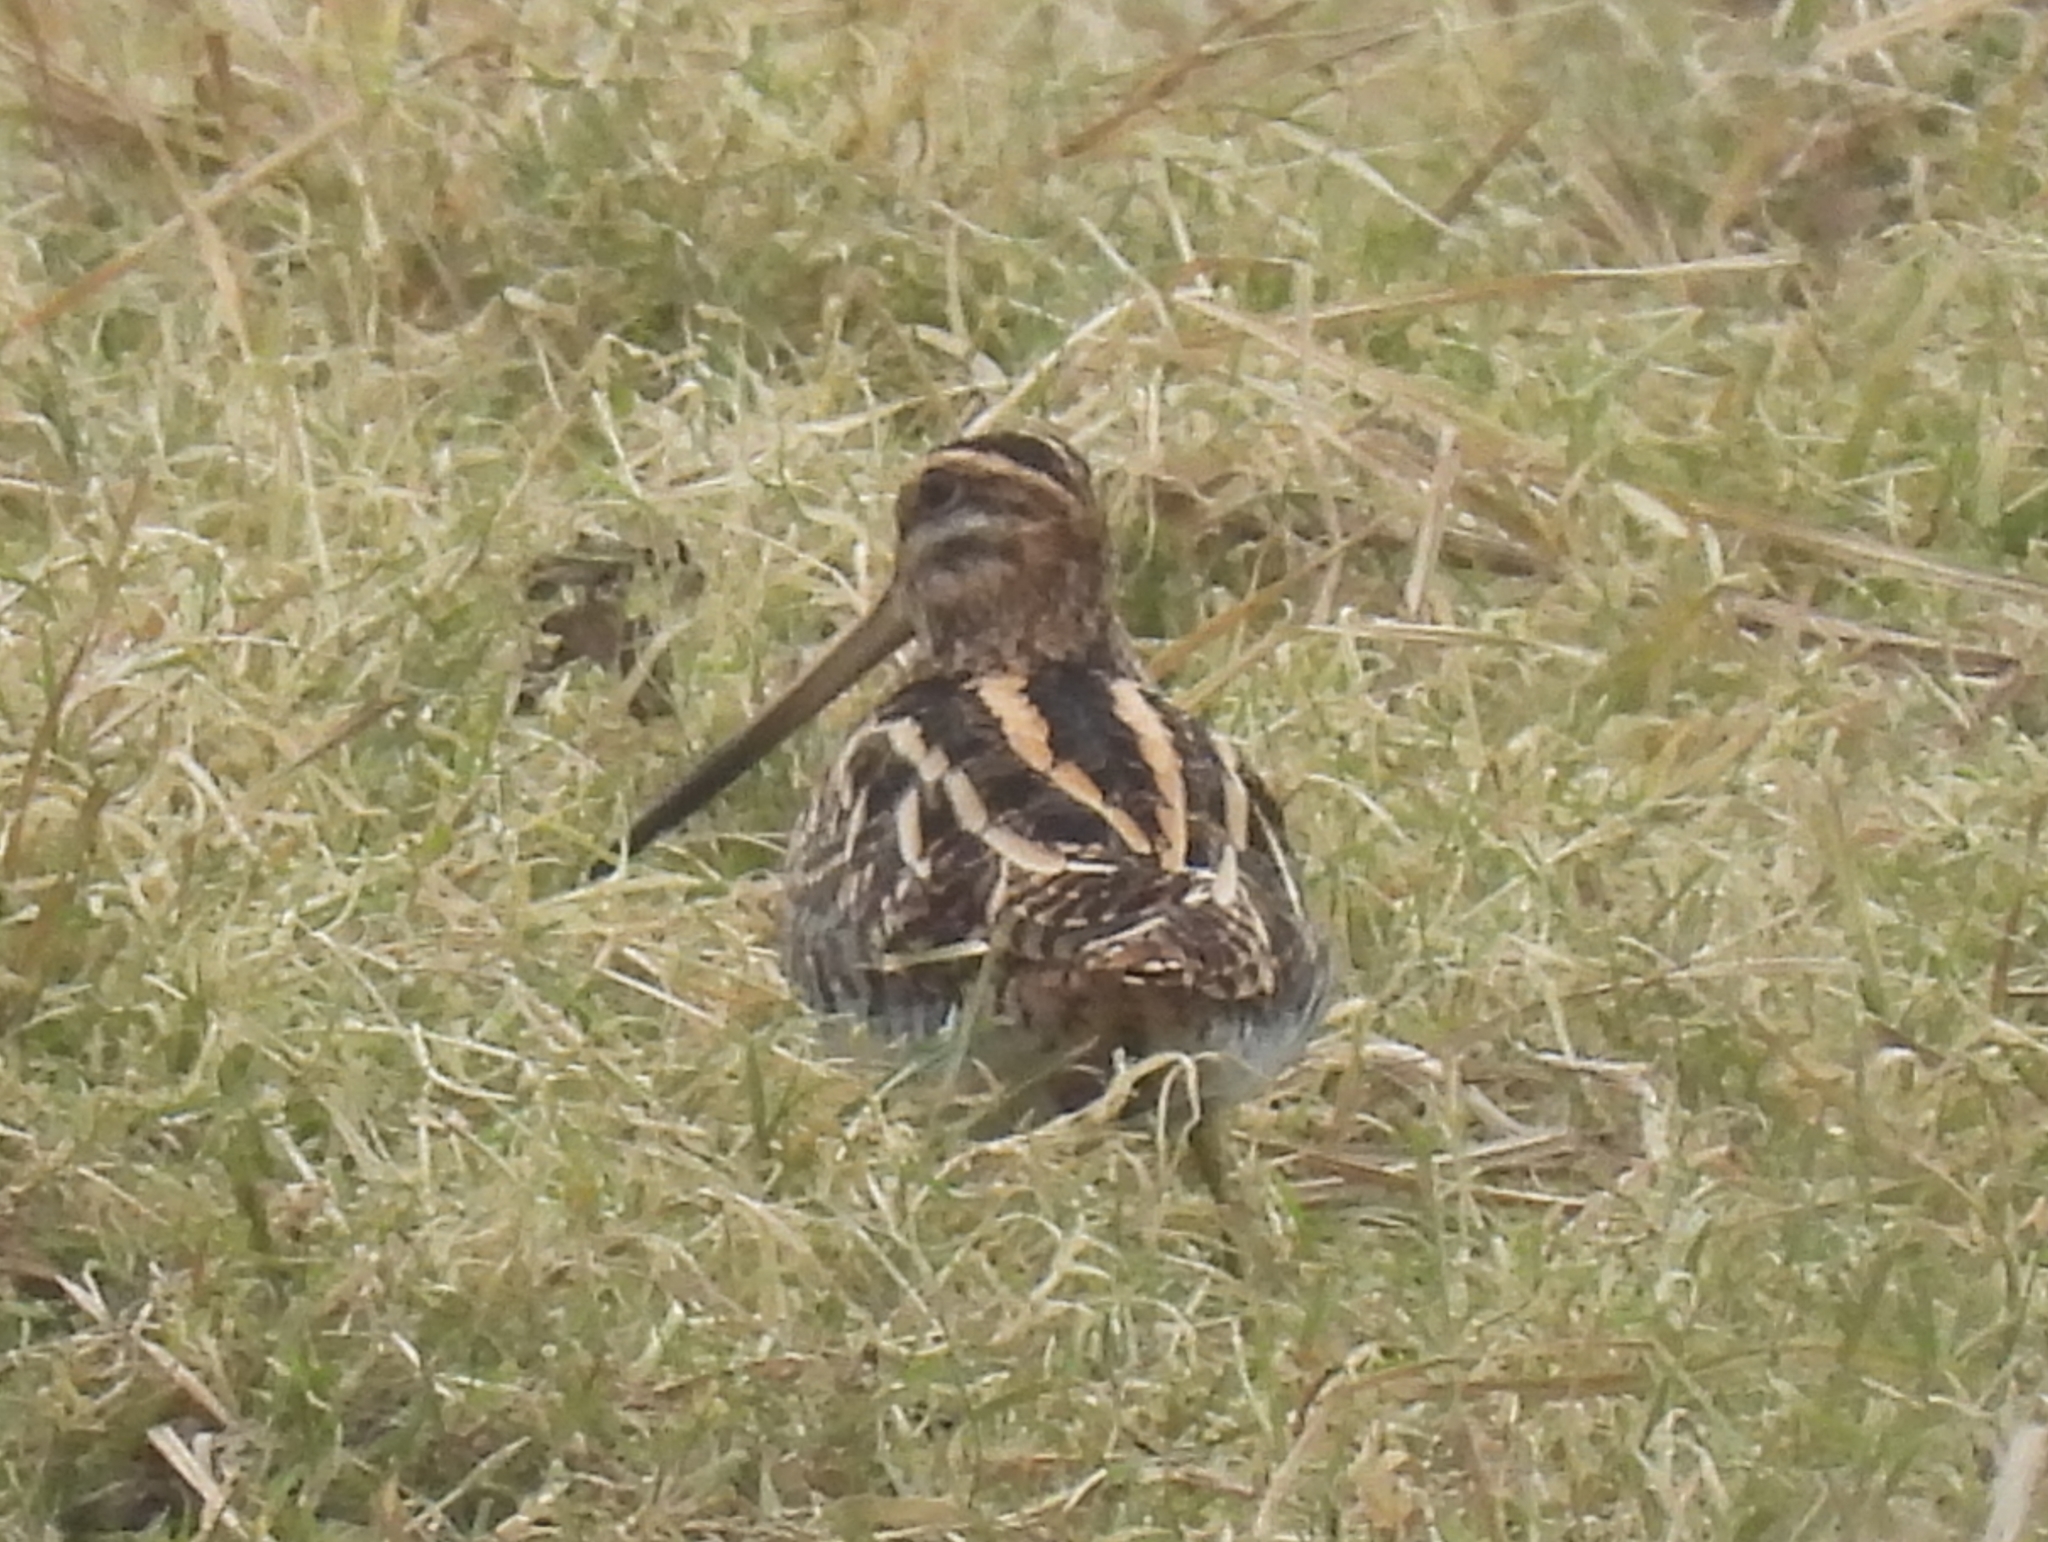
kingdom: Animalia
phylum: Chordata
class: Aves
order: Charadriiformes
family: Scolopacidae
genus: Gallinago
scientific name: Gallinago gallinago
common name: Common snipe
